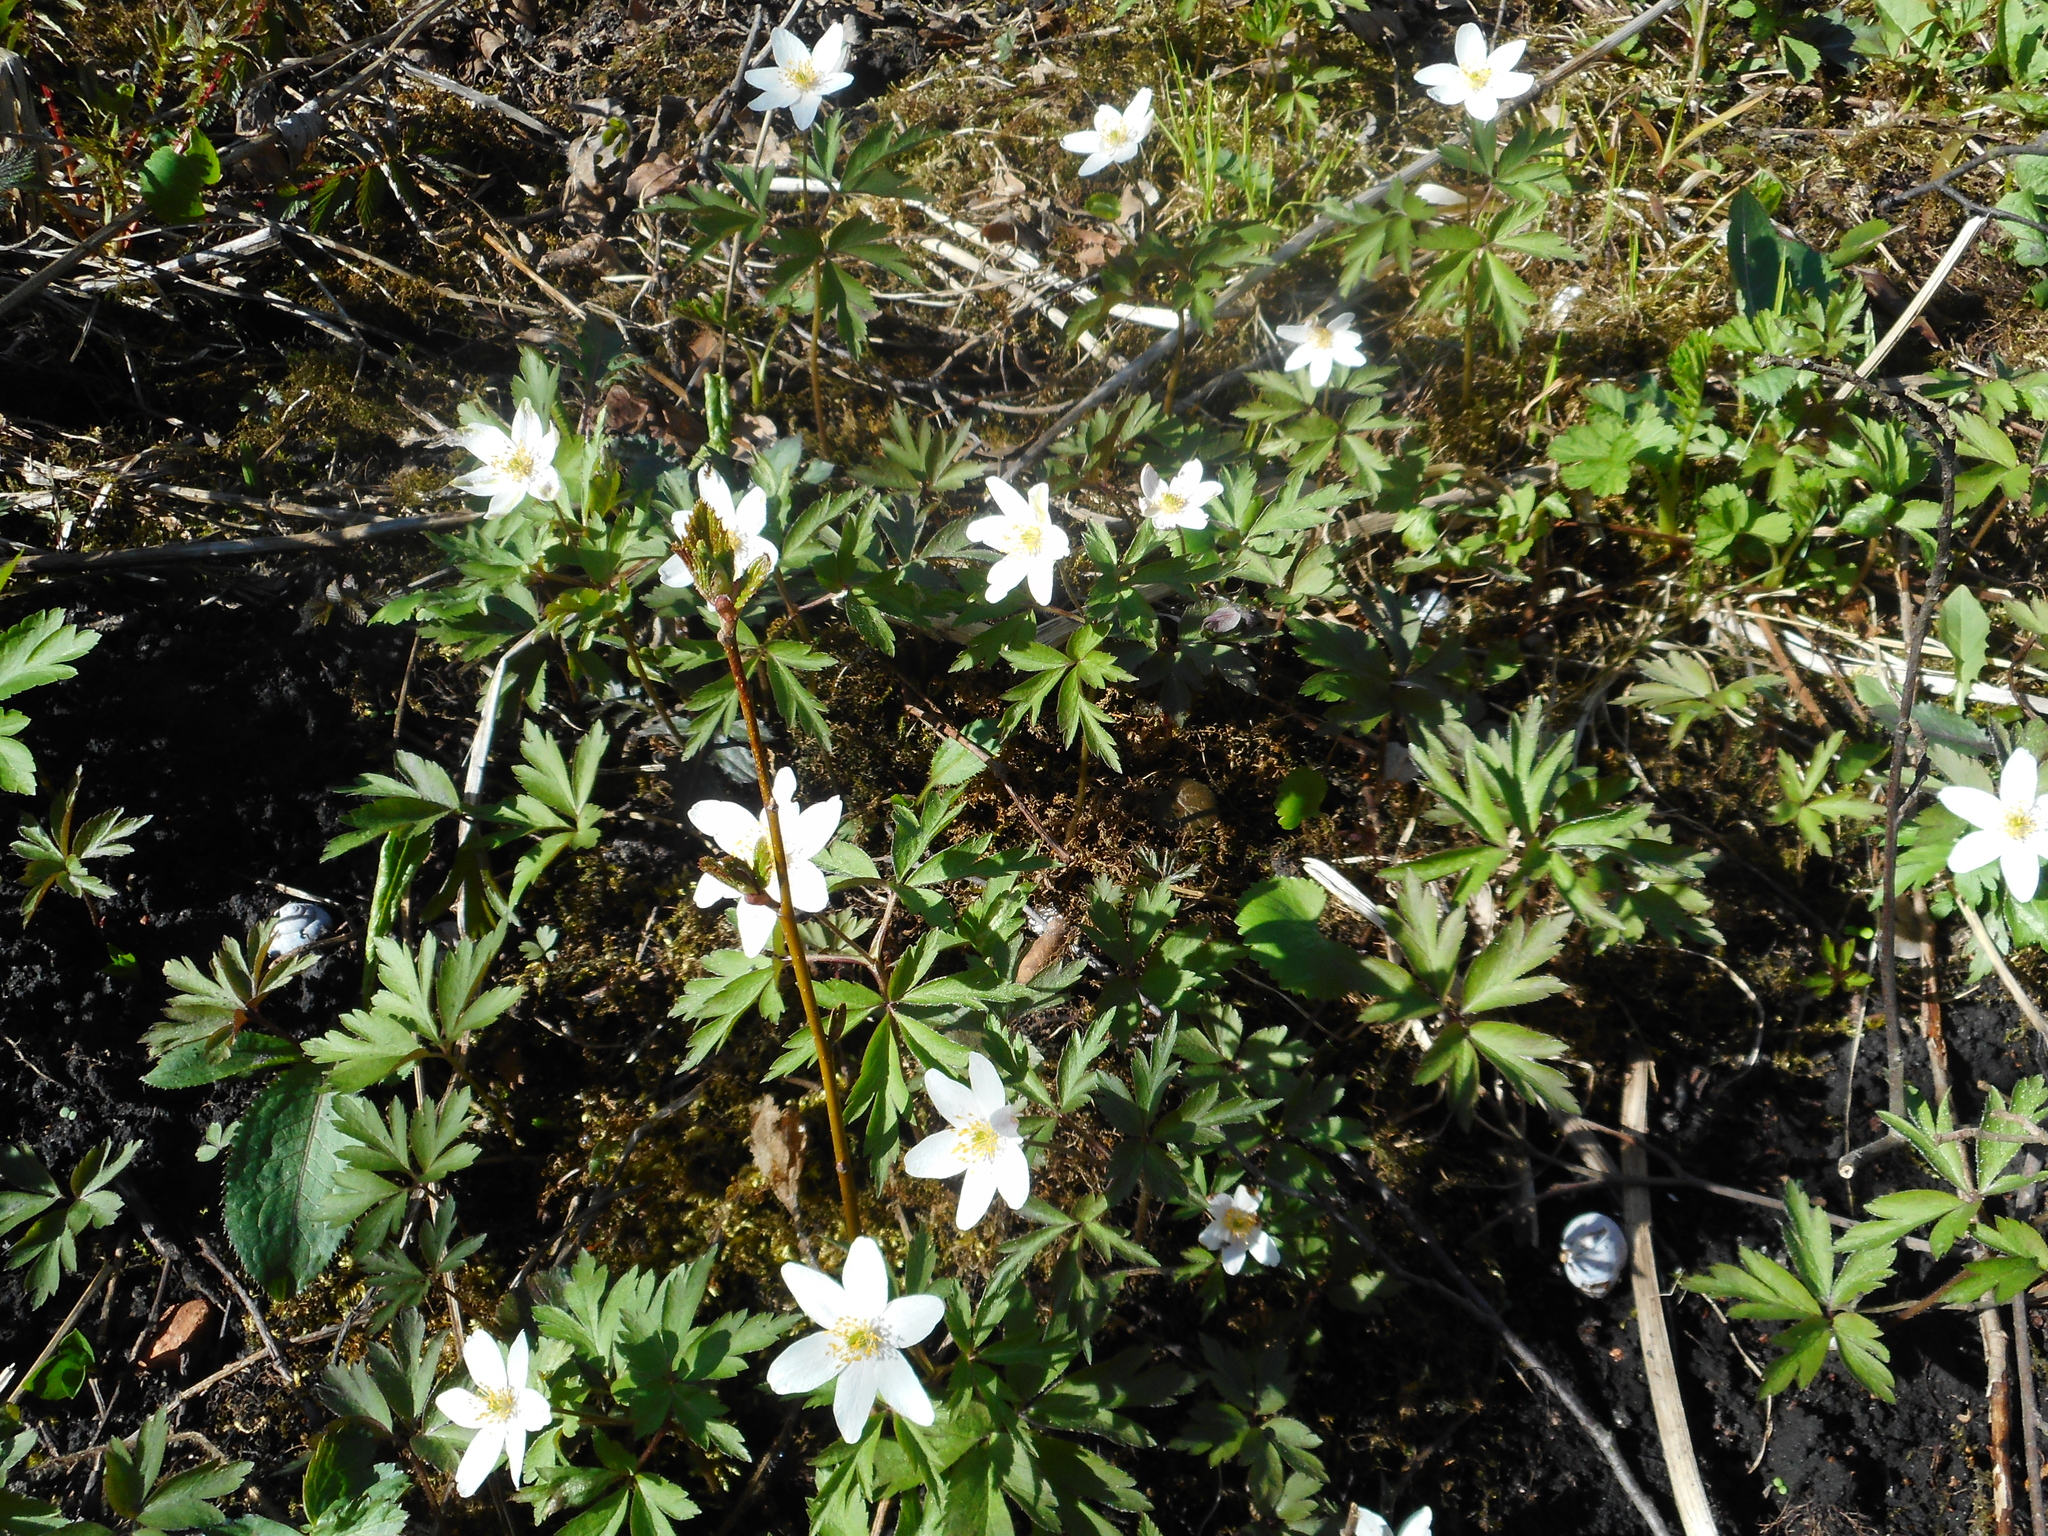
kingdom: Plantae
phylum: Tracheophyta
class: Magnoliopsida
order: Ranunculales
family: Ranunculaceae
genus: Anemone
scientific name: Anemone nemorosa
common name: Wood anemone
